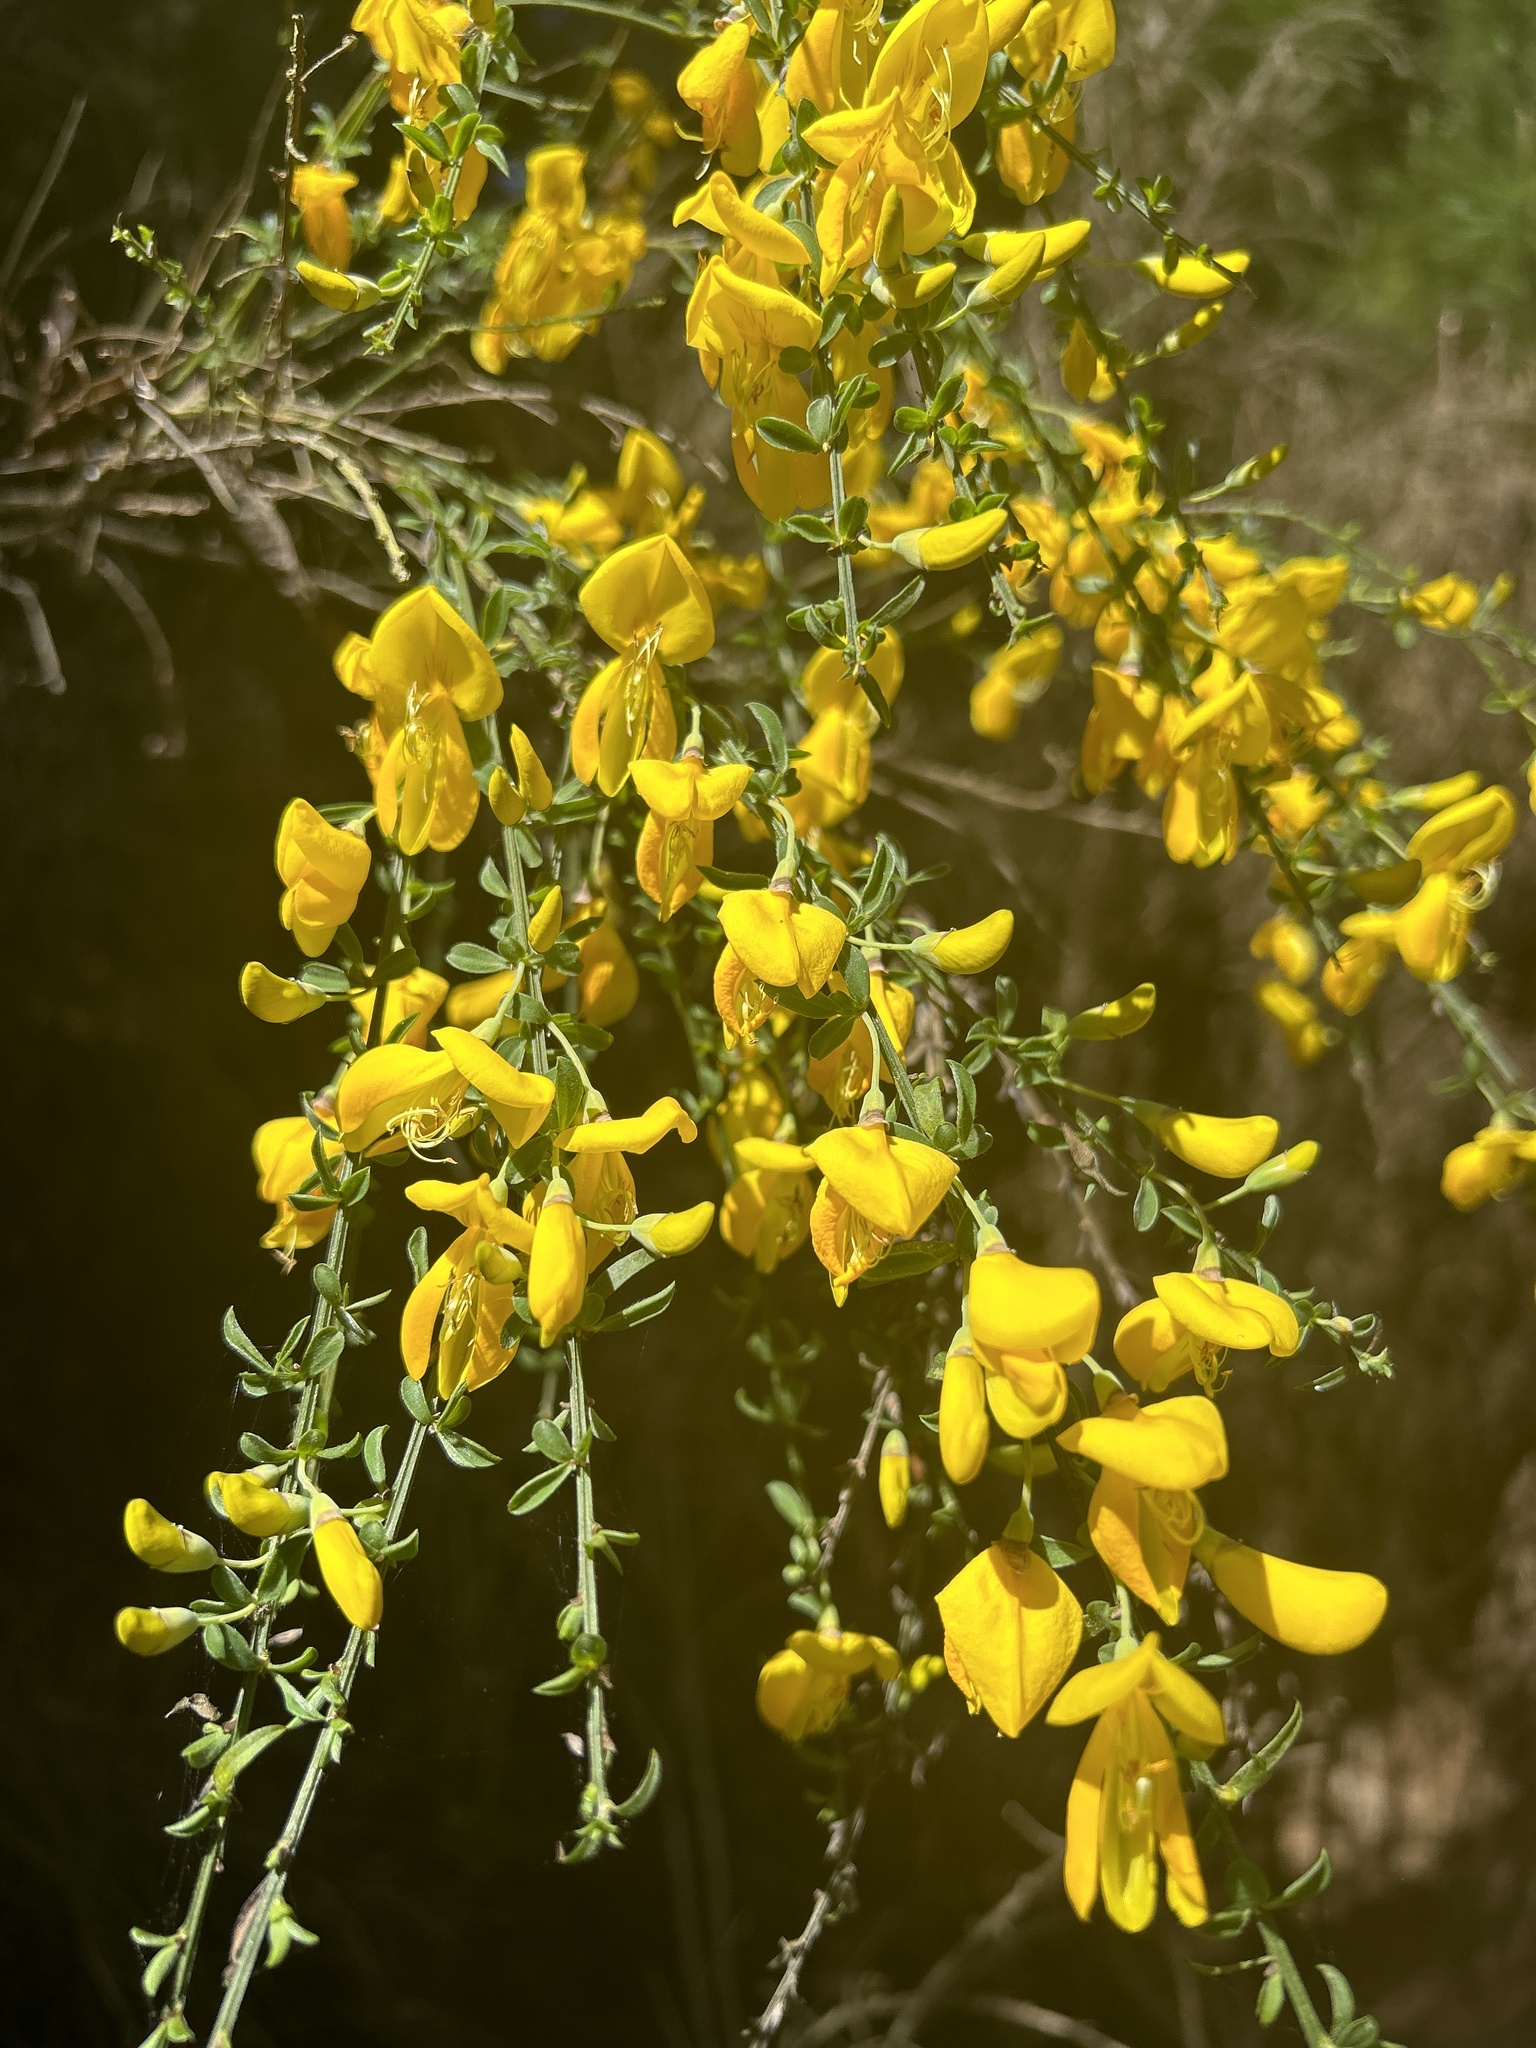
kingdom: Plantae
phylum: Tracheophyta
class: Magnoliopsida
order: Fabales
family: Fabaceae
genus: Cytisus
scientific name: Cytisus scoparius
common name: Scotch broom
